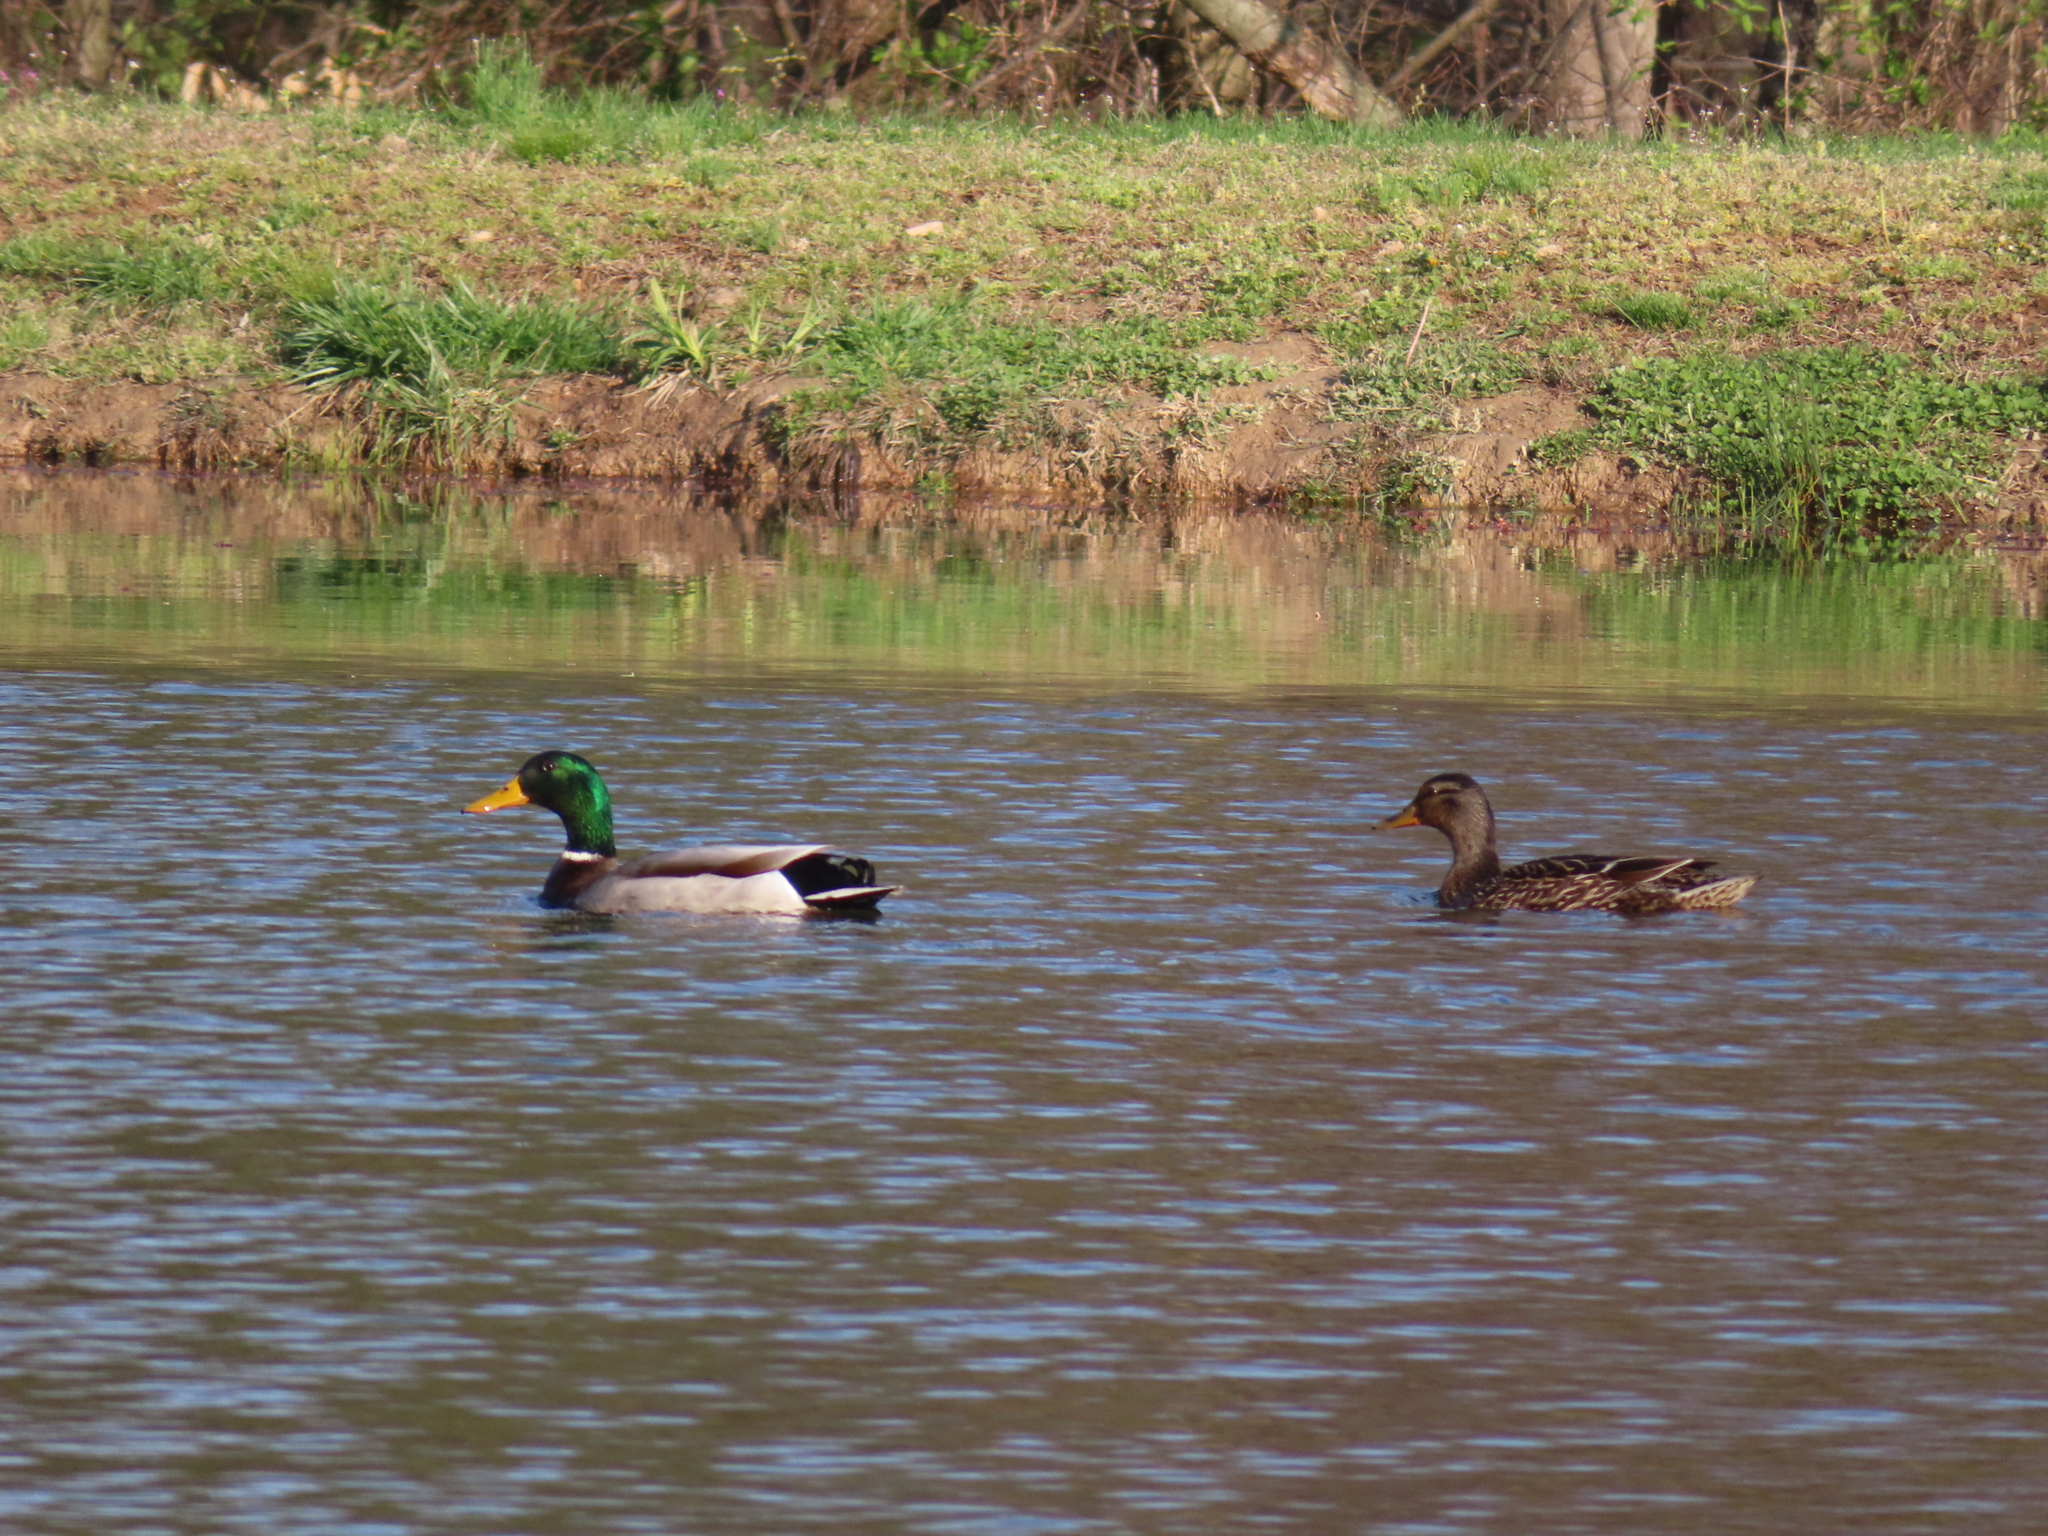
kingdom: Animalia
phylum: Chordata
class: Aves
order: Anseriformes
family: Anatidae
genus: Anas
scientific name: Anas platyrhynchos
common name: Mallard
